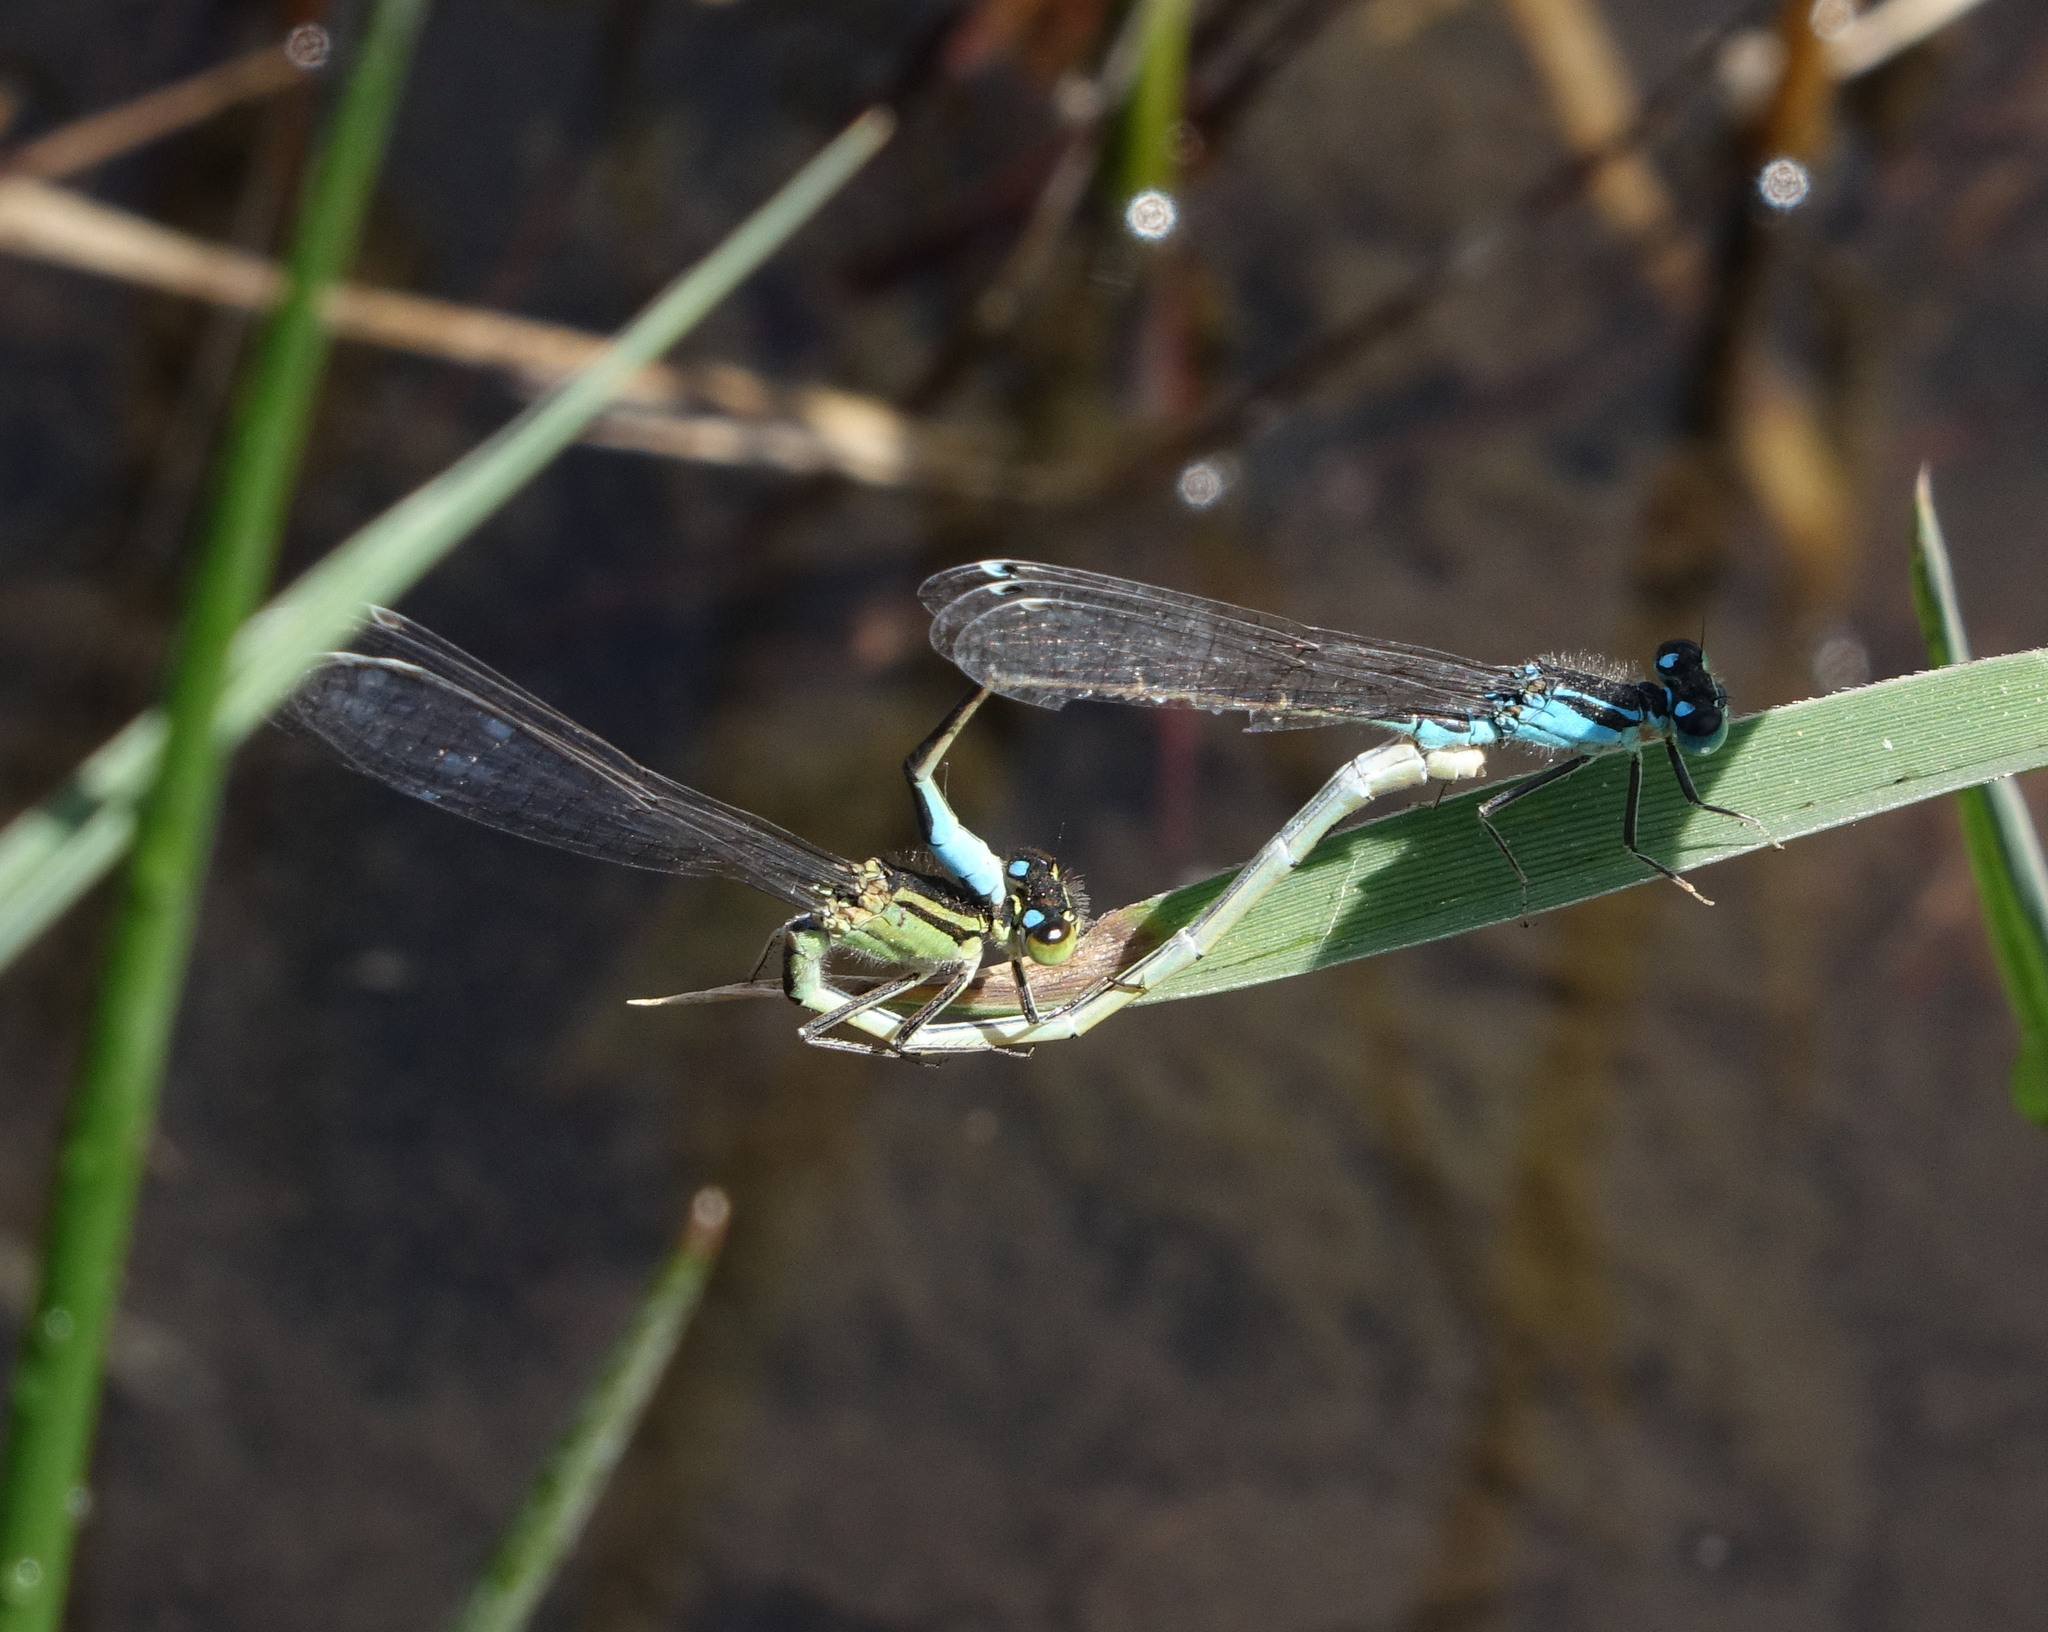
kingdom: Animalia
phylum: Arthropoda
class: Insecta
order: Odonata
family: Coenagrionidae
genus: Ischnura
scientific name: Ischnura elegans
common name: Blue-tailed damselfly
